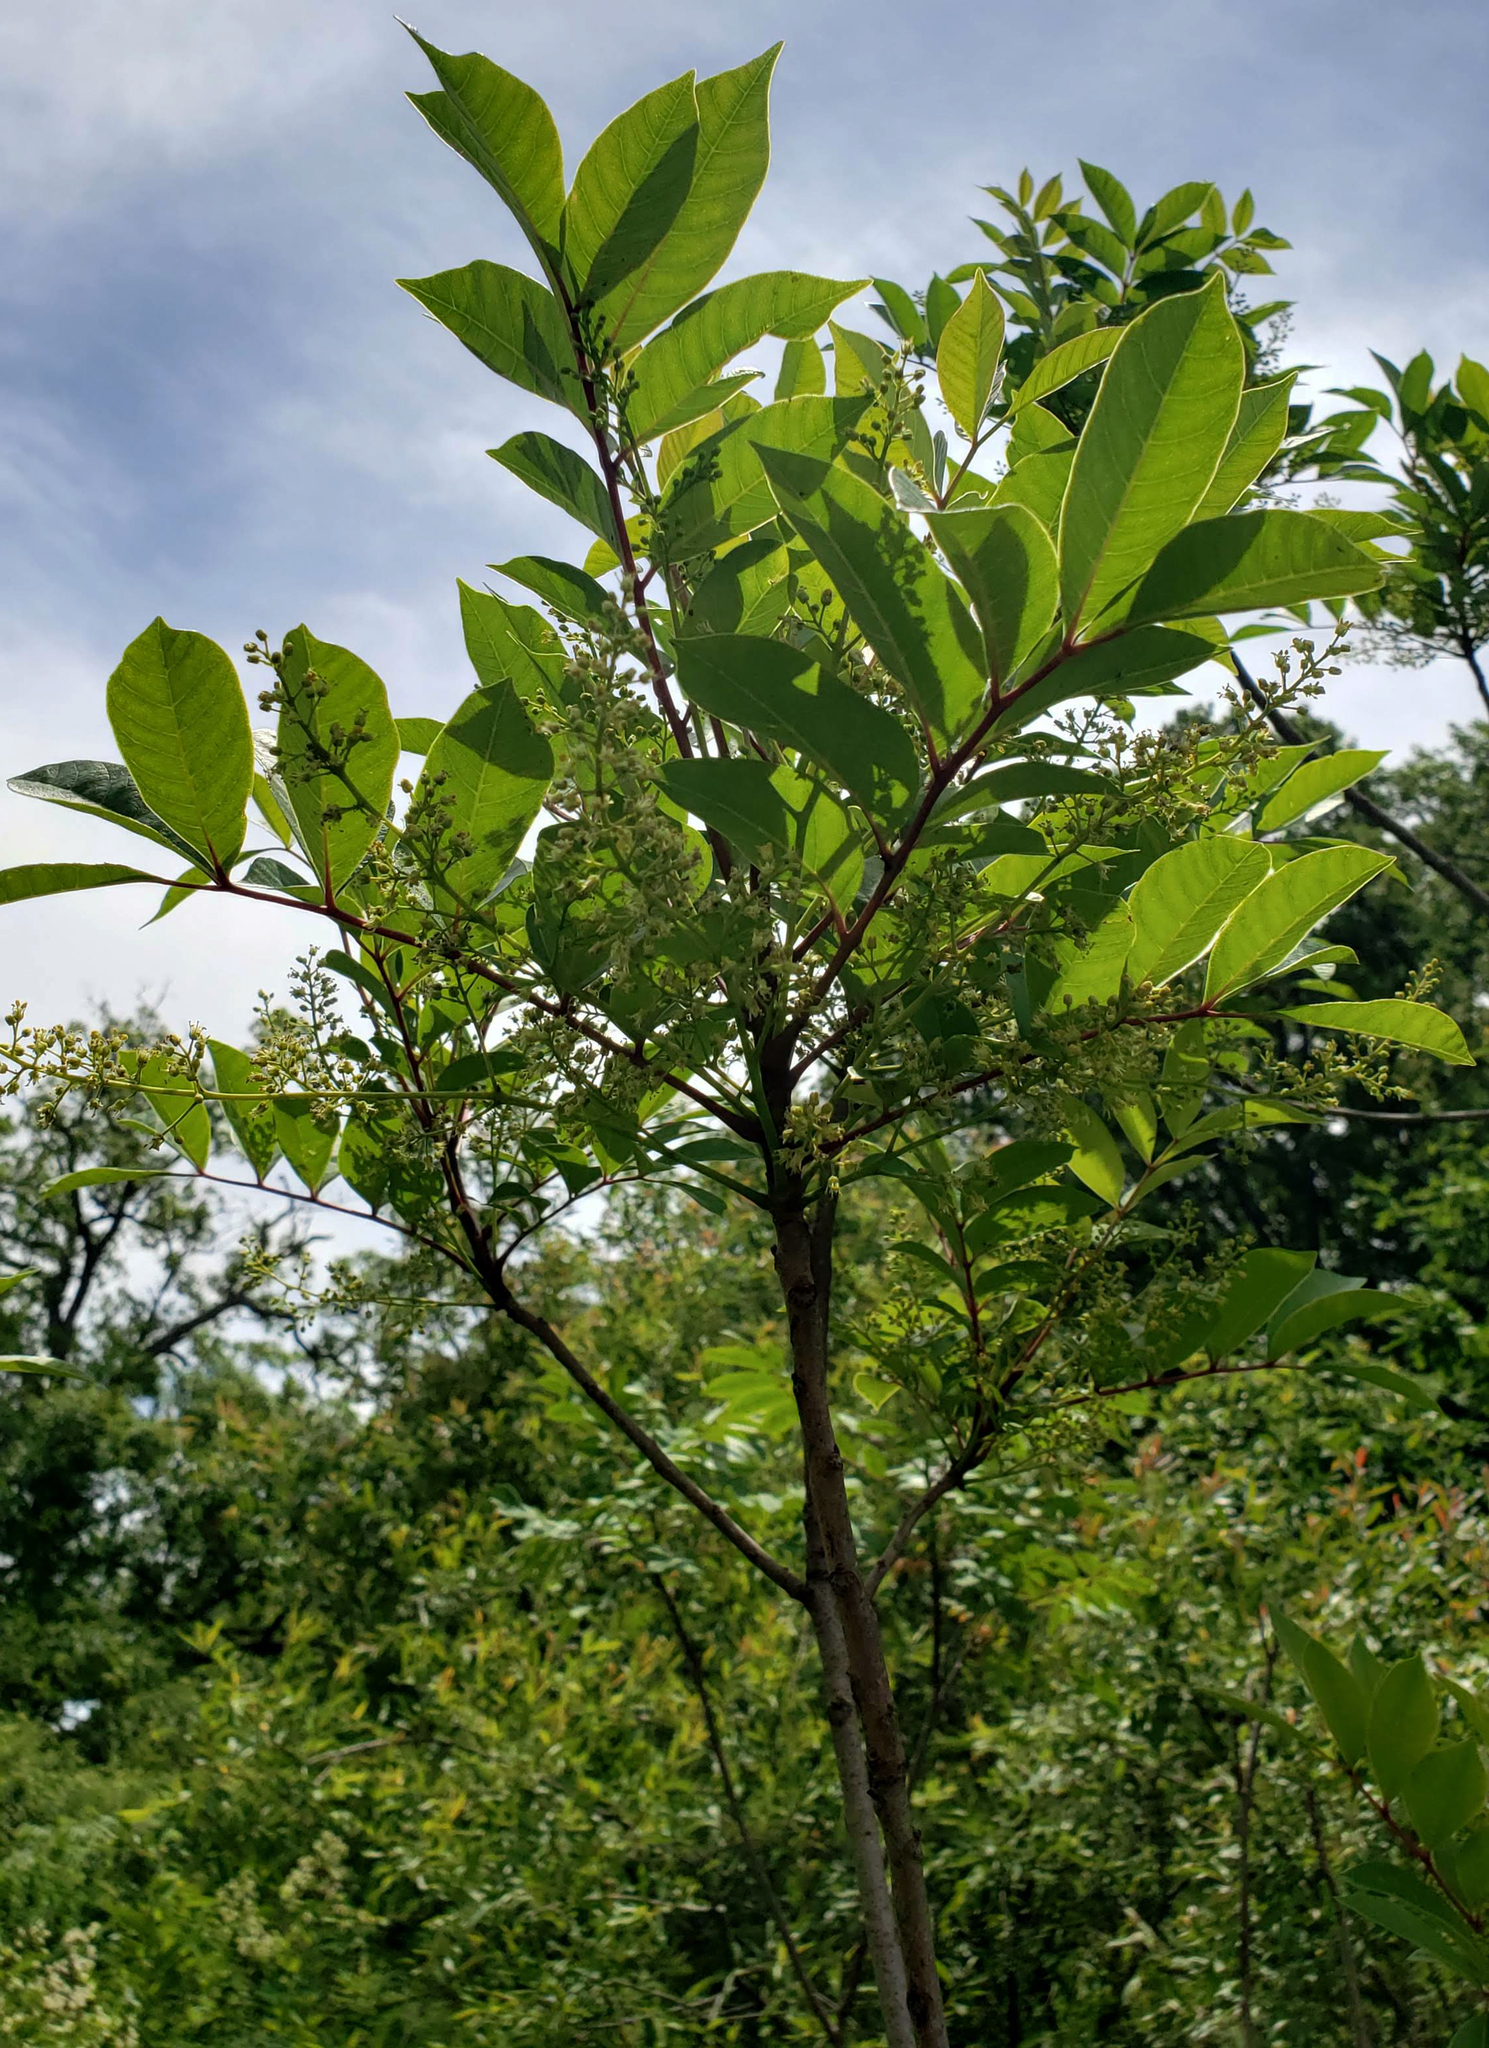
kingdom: Plantae
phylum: Tracheophyta
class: Magnoliopsida
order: Sapindales
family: Anacardiaceae
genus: Toxicodendron
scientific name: Toxicodendron vernix
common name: Poison sumac
